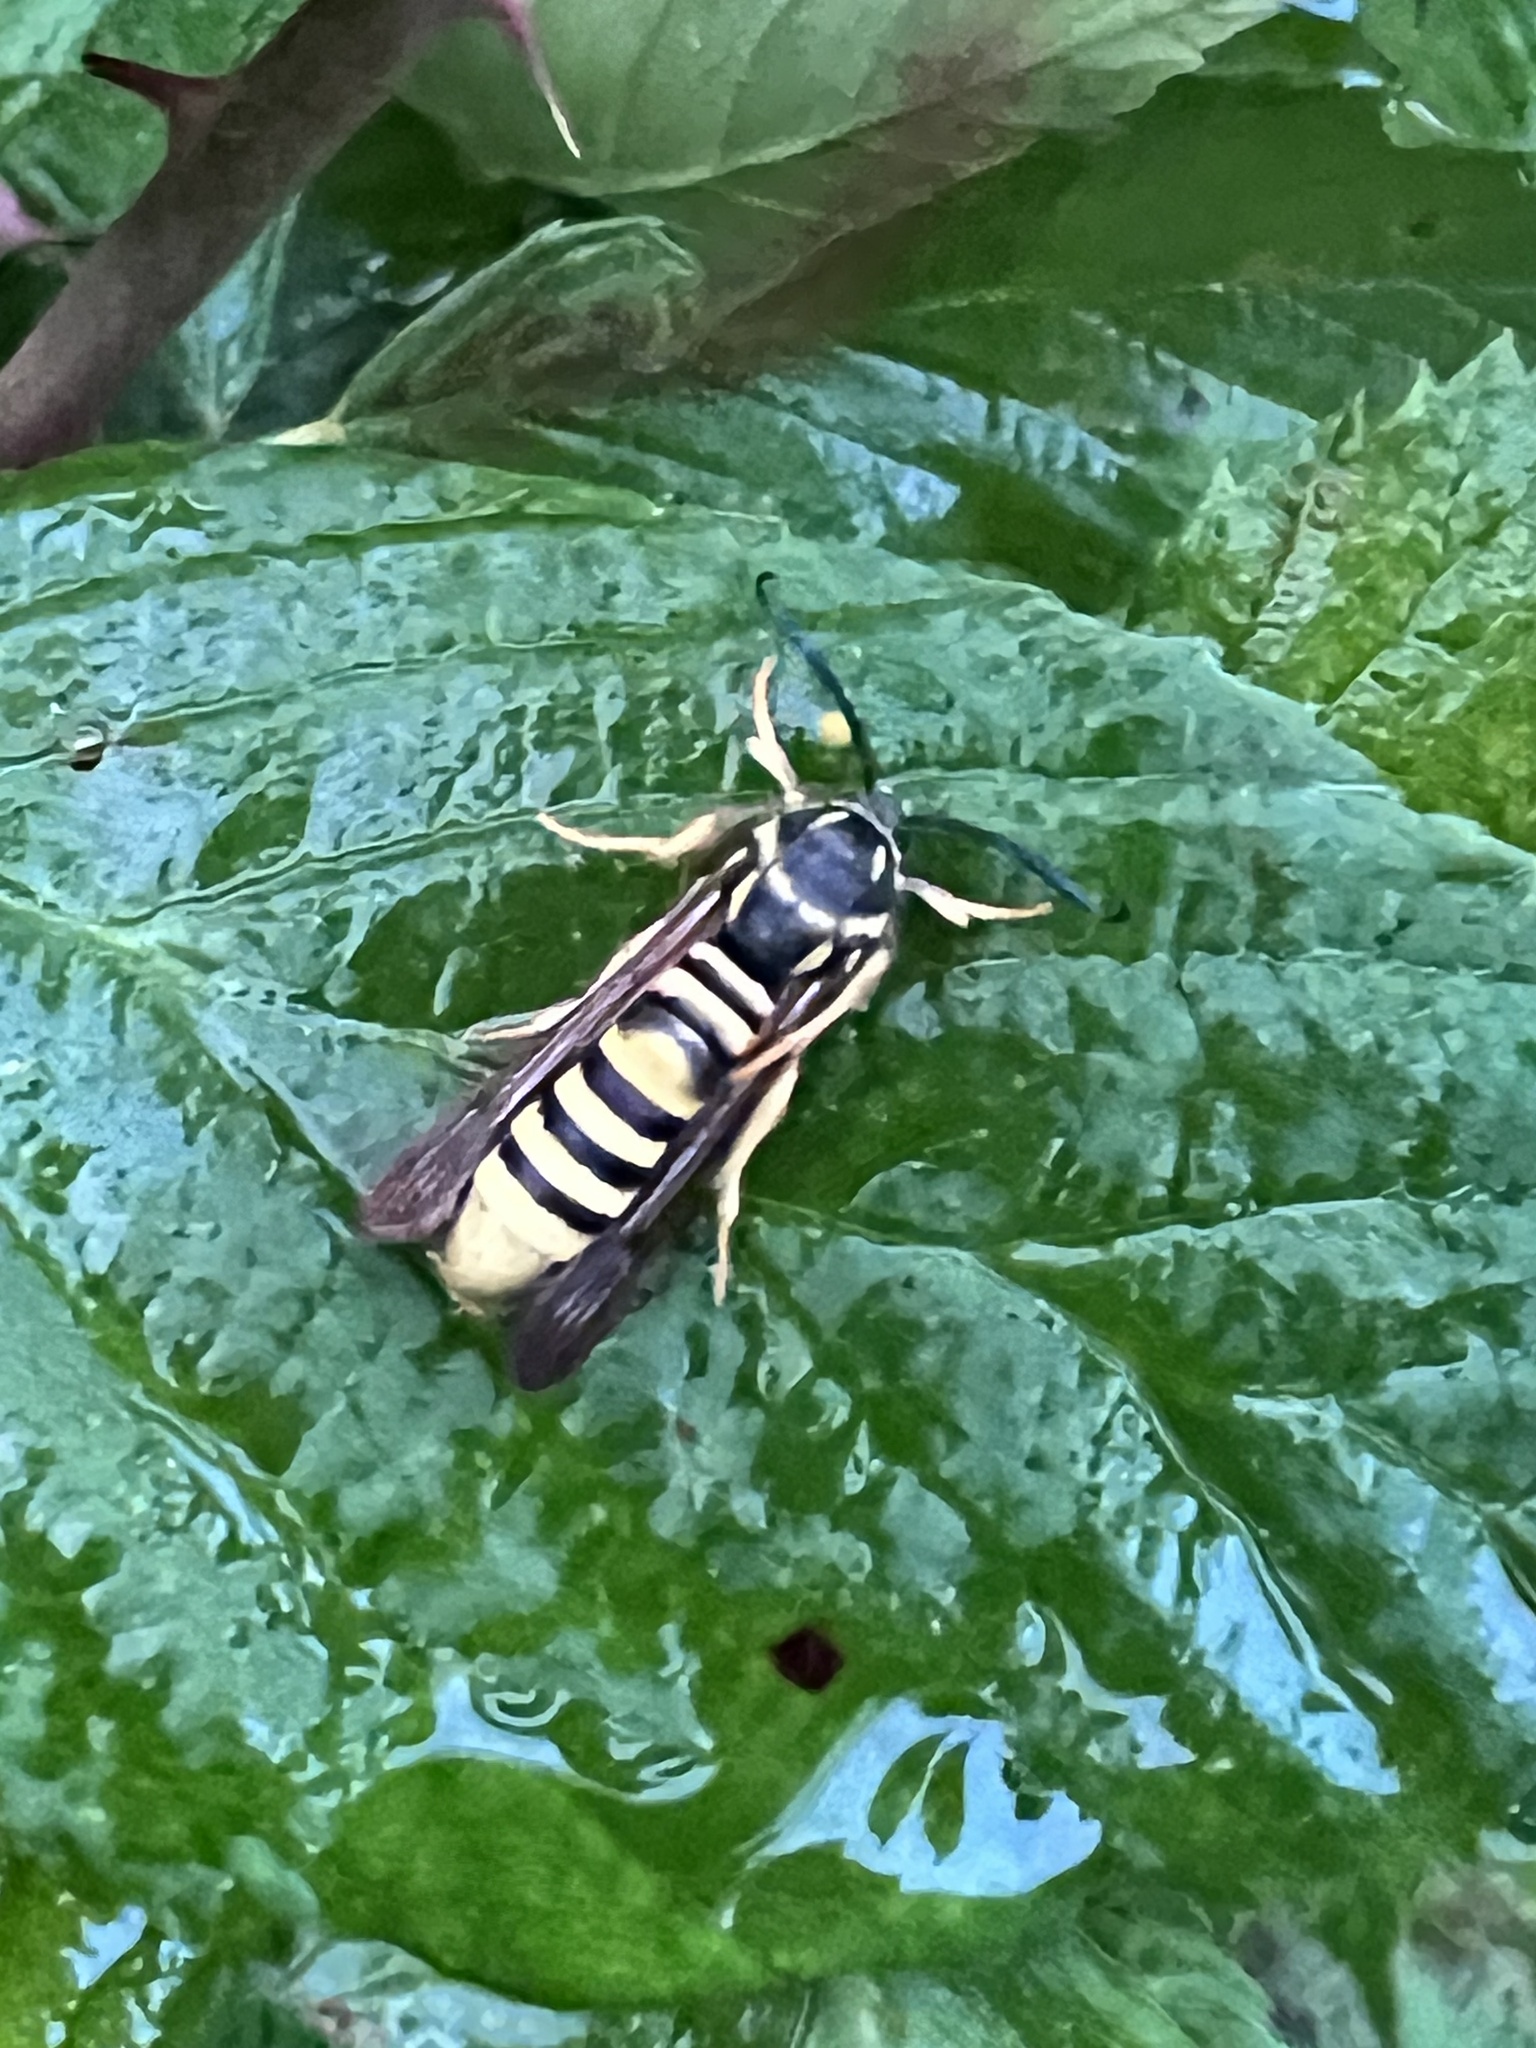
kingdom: Animalia
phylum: Arthropoda
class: Insecta
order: Lepidoptera
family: Sesiidae
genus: Pennisetia
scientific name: Pennisetia marginatum
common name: Raspberry crown borer
